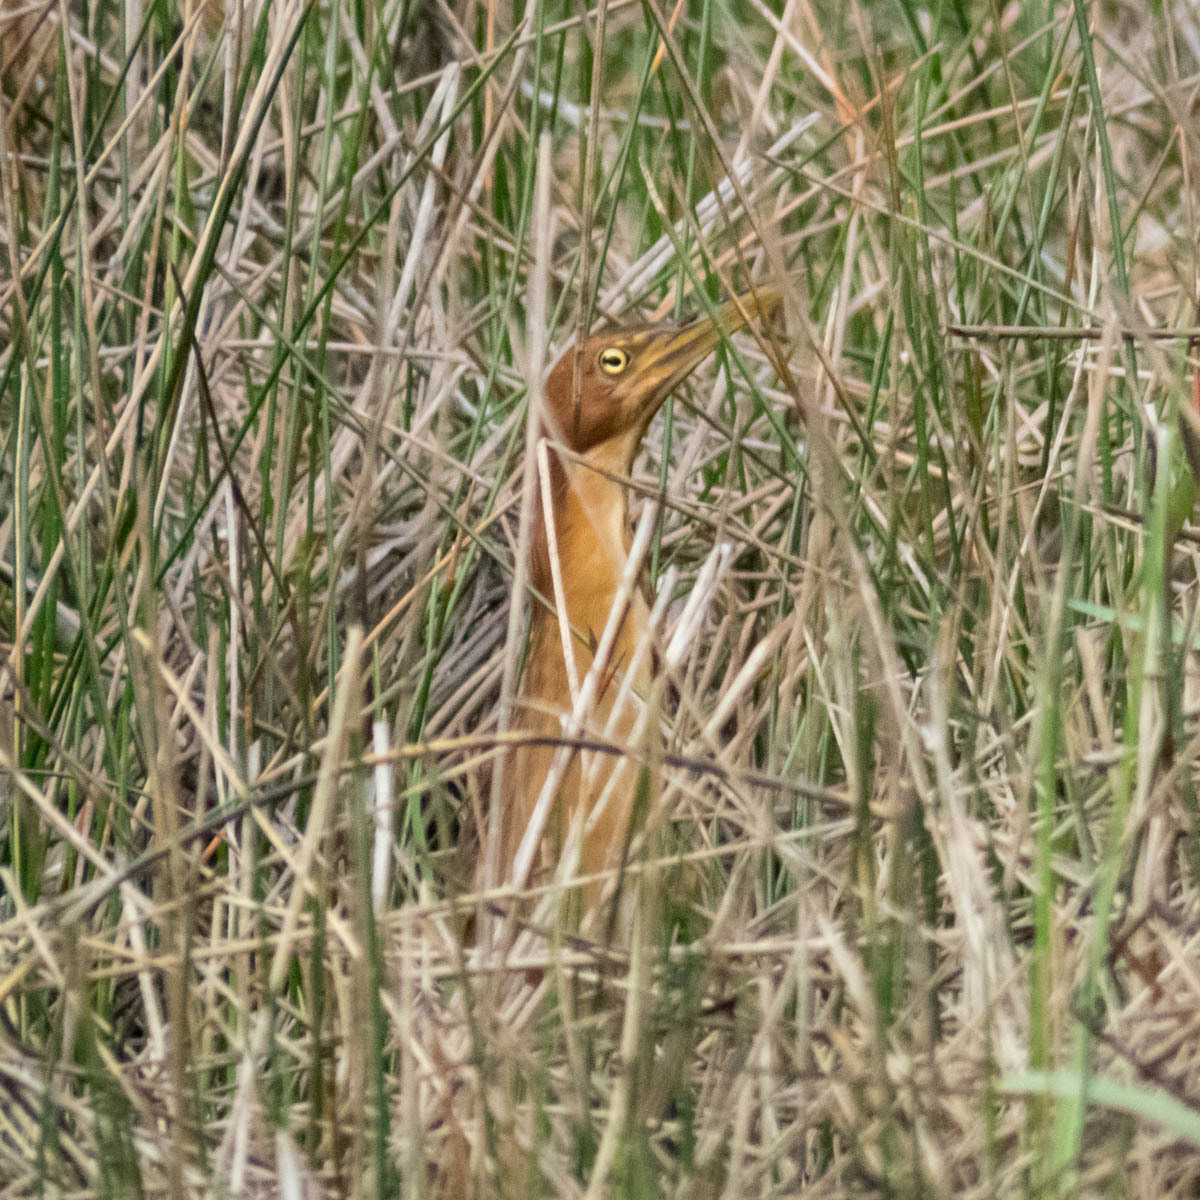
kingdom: Animalia
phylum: Chordata
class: Aves
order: Pelecaniformes
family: Ardeidae
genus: Ixobrychus
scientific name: Ixobrychus cinnamomeus
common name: Cinnamon bittern
